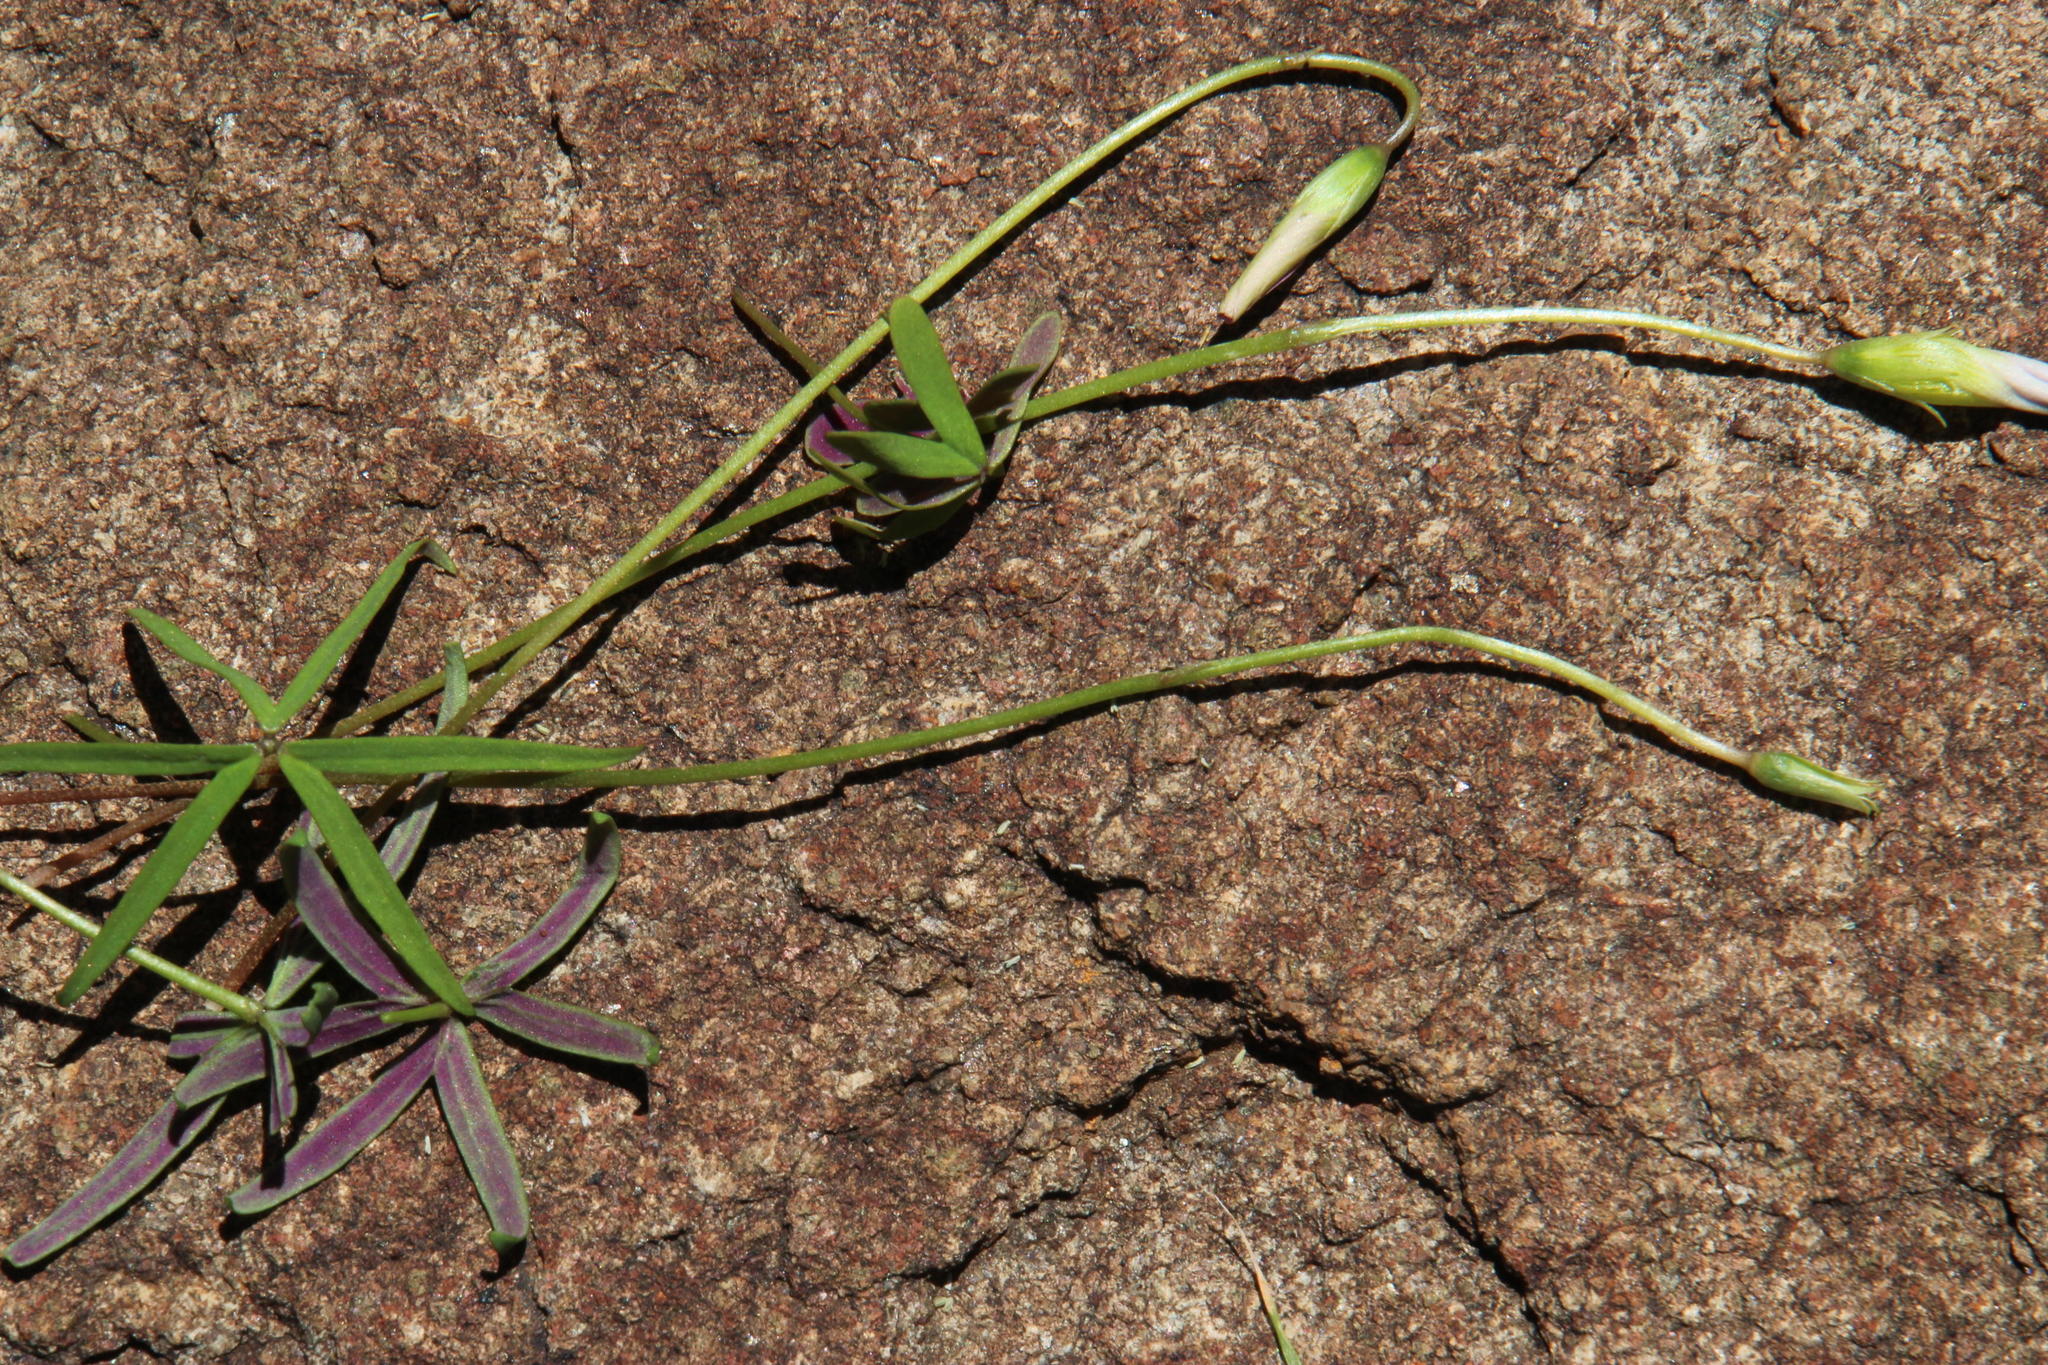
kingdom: Plantae
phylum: Tracheophyta
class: Magnoliopsida
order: Oxalidales
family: Oxalidaceae
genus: Oxalis
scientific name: Oxalis smithiana
